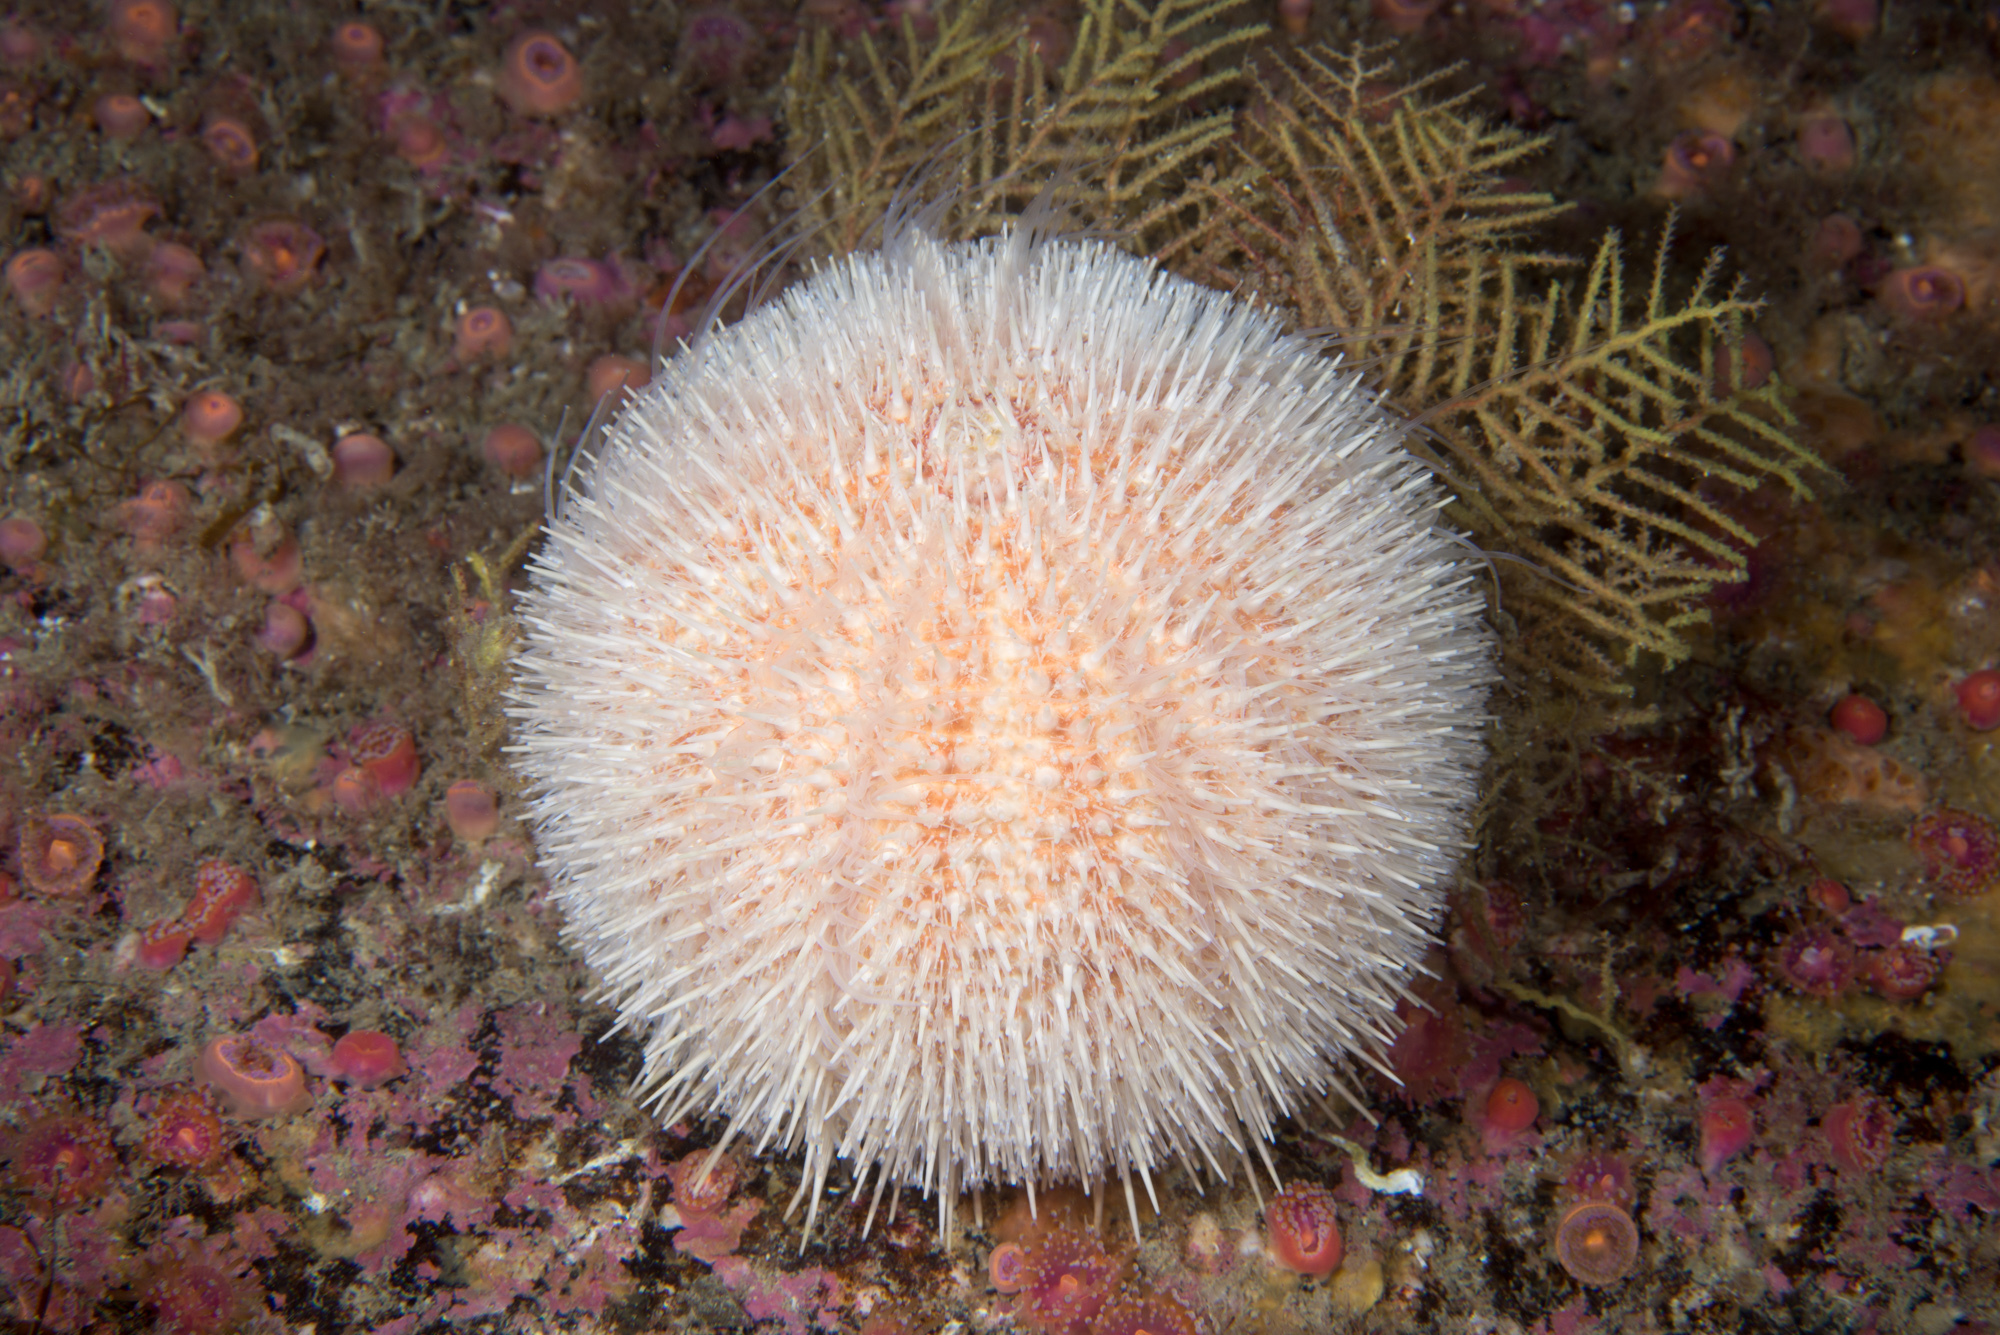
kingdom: Animalia
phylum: Echinodermata
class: Echinoidea
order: Camarodonta
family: Echinidae
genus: Echinus
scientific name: Echinus esculentus
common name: Edible sea urchin
